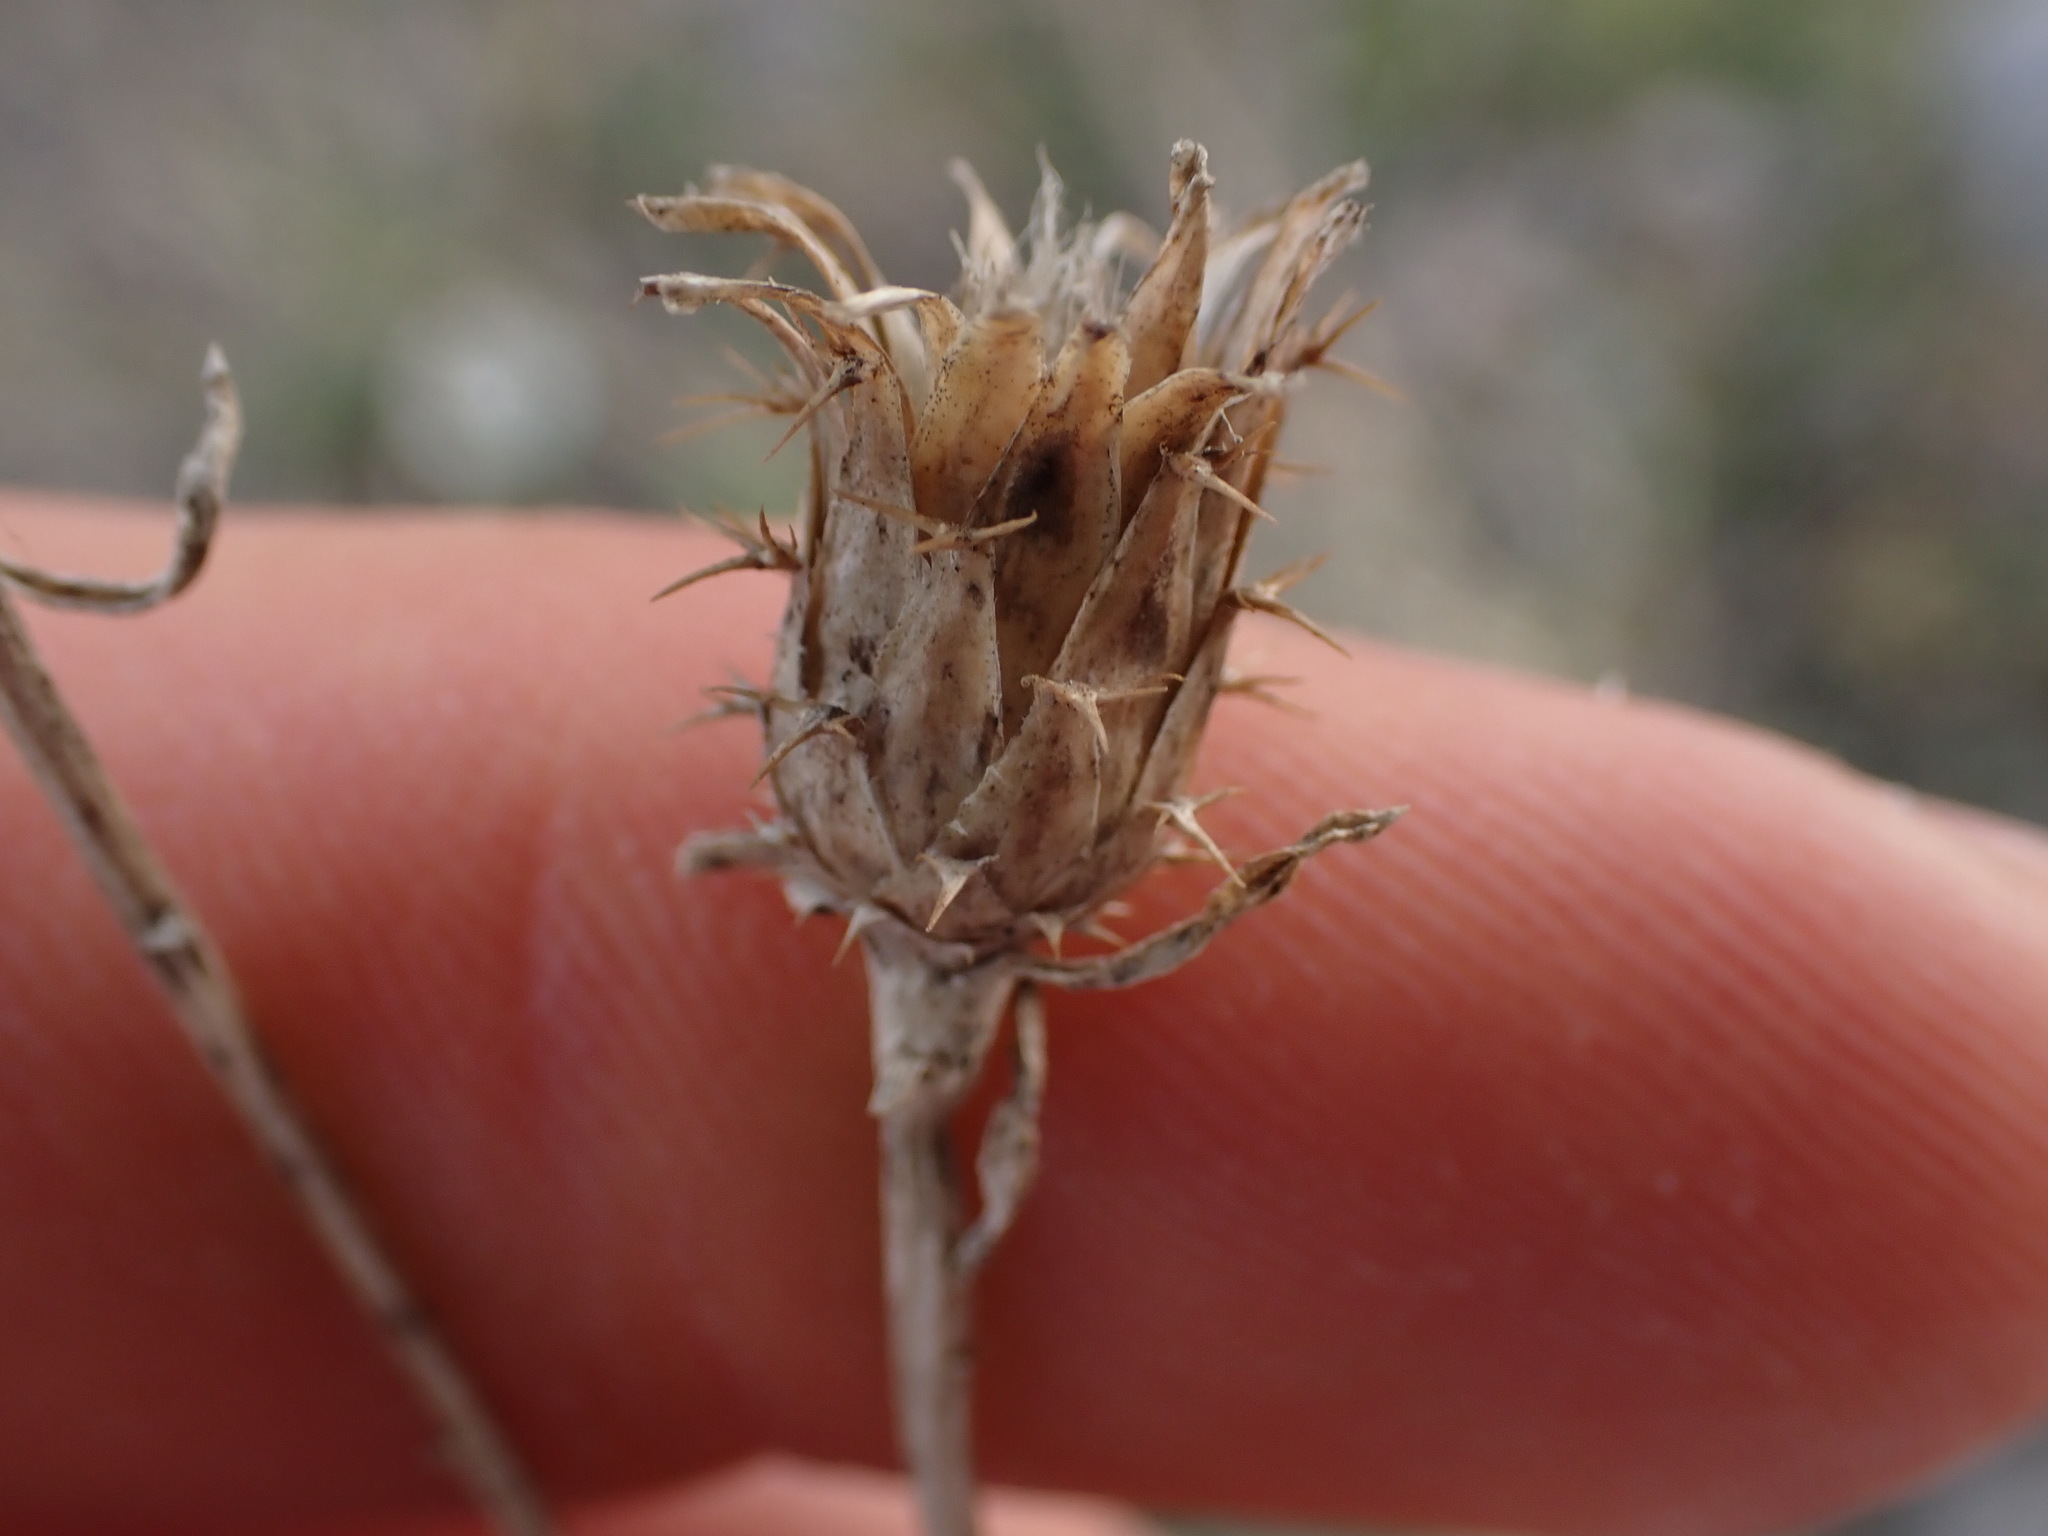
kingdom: Plantae
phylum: Tracheophyta
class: Magnoliopsida
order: Asterales
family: Asteraceae
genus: Centaurea
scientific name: Centaurea aspera
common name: Rough star-thistle
